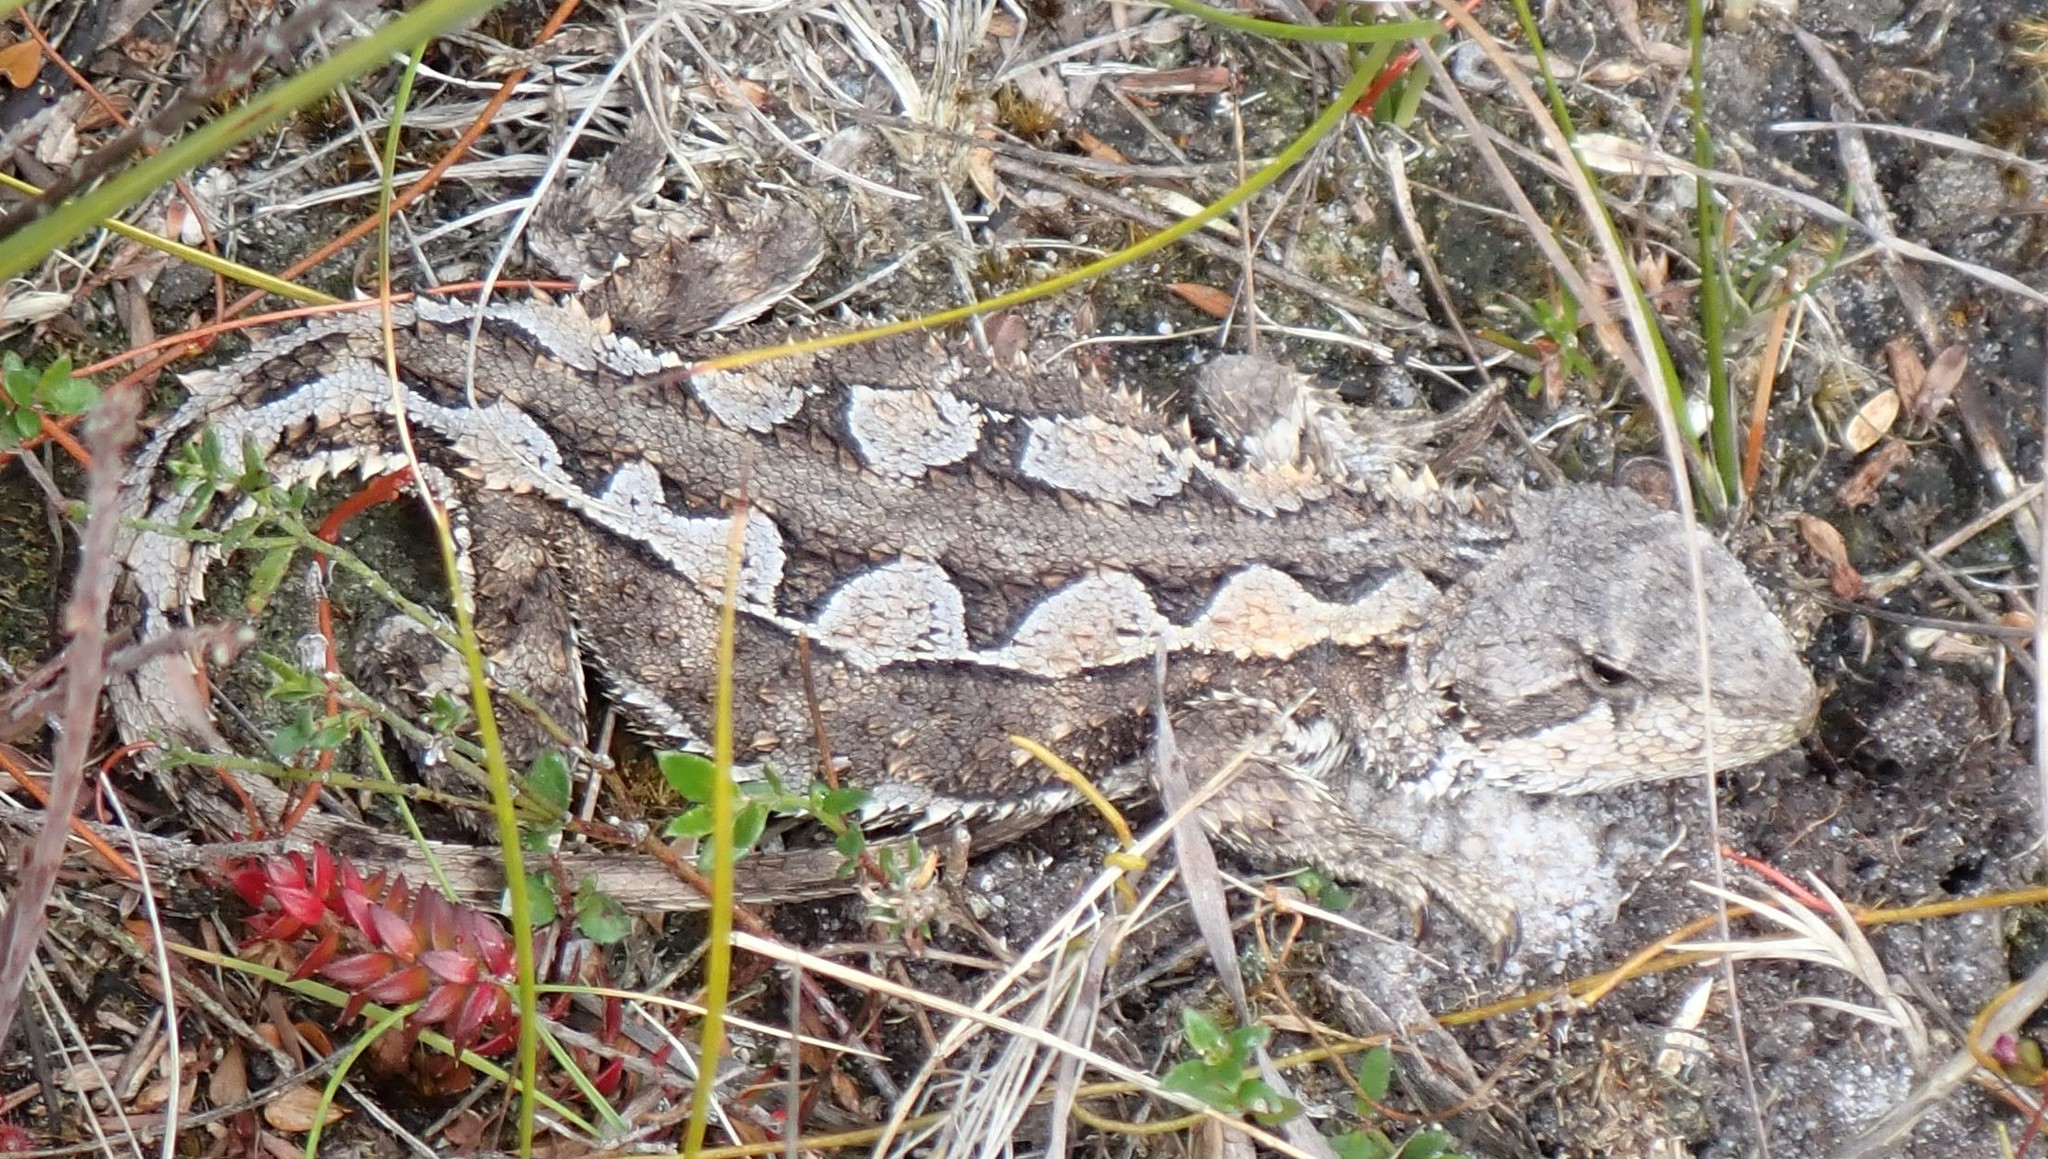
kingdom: Animalia
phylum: Chordata
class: Squamata
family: Agamidae
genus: Rankinia
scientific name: Rankinia diemensis
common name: Mountain dragon
